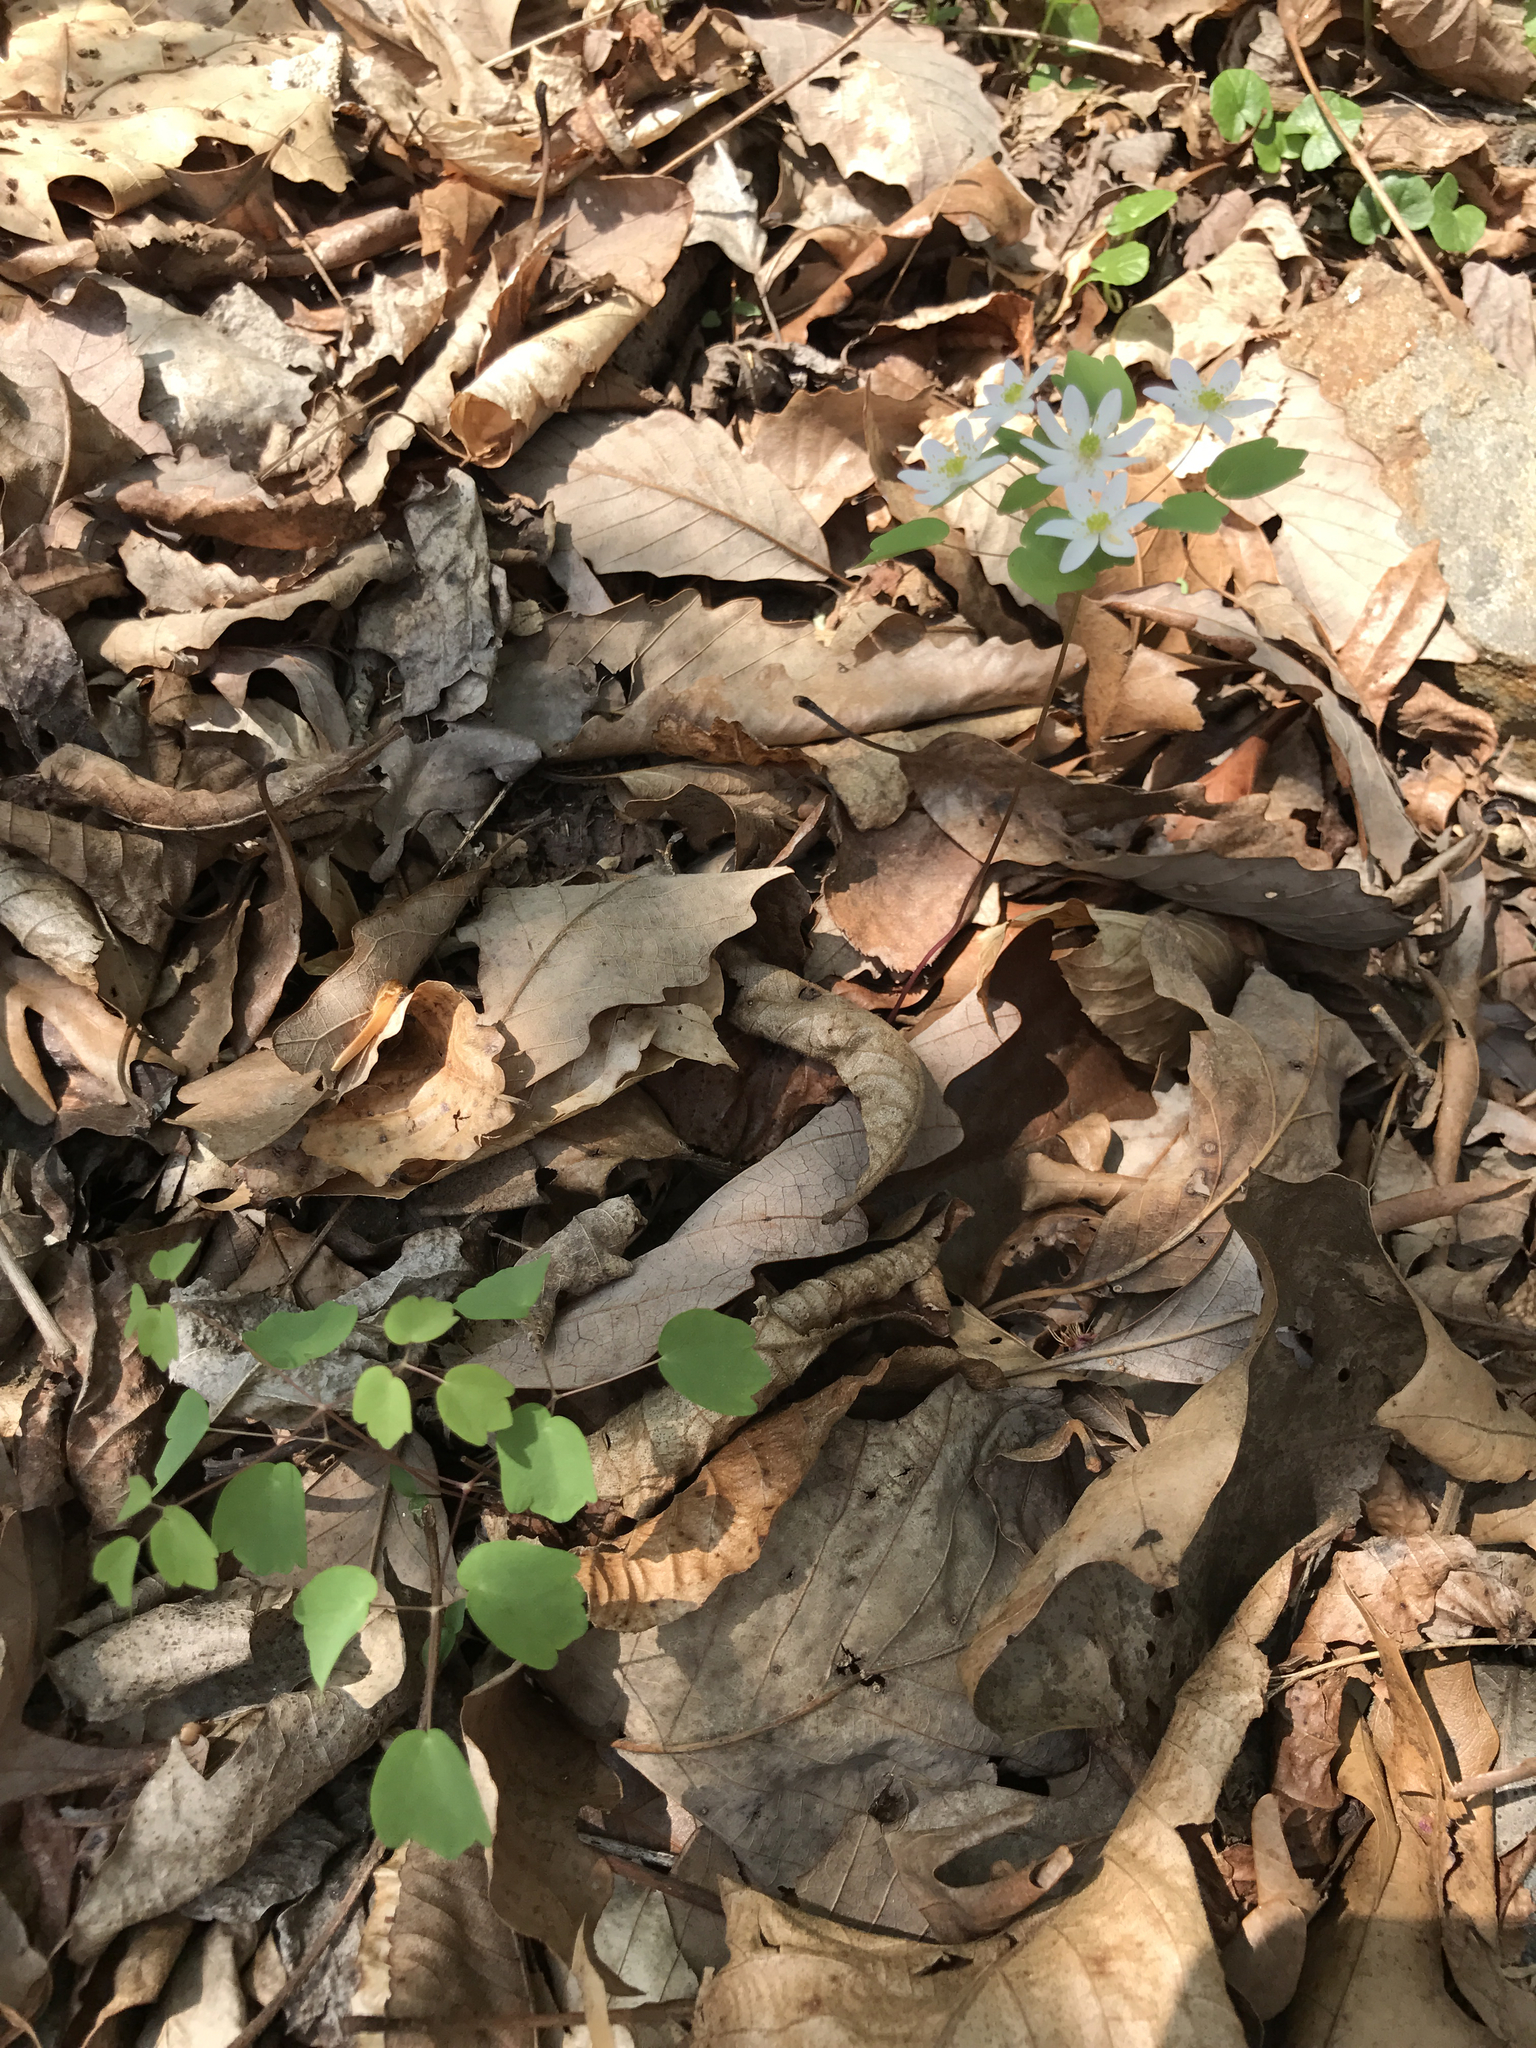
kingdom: Plantae
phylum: Tracheophyta
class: Magnoliopsida
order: Ranunculales
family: Ranunculaceae
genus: Thalictrum
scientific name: Thalictrum thalictroides
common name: Rue-anemone
